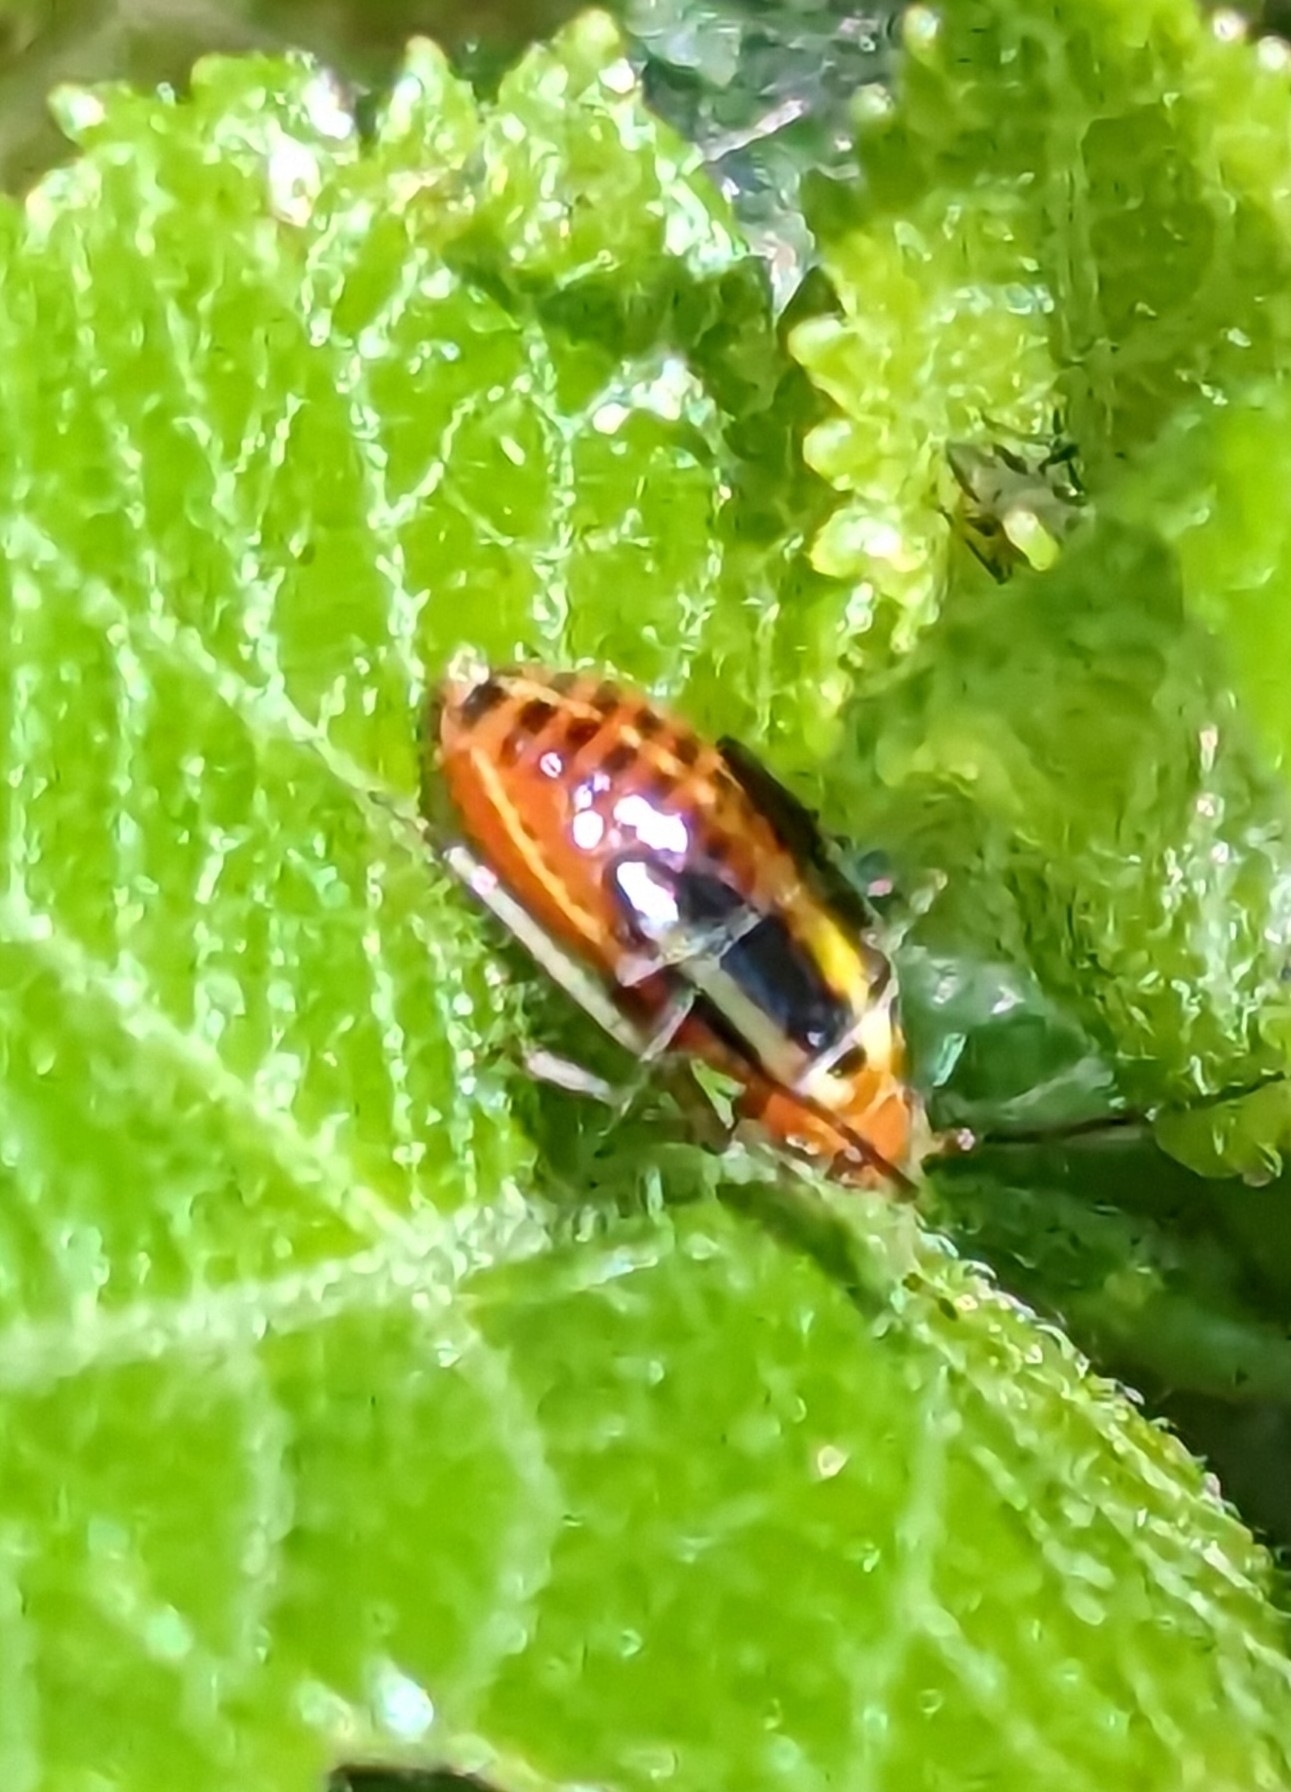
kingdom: Animalia
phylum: Arthropoda
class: Insecta
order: Hemiptera
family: Miridae
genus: Poecilocapsus
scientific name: Poecilocapsus lineatus
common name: Four-lined plant bug
